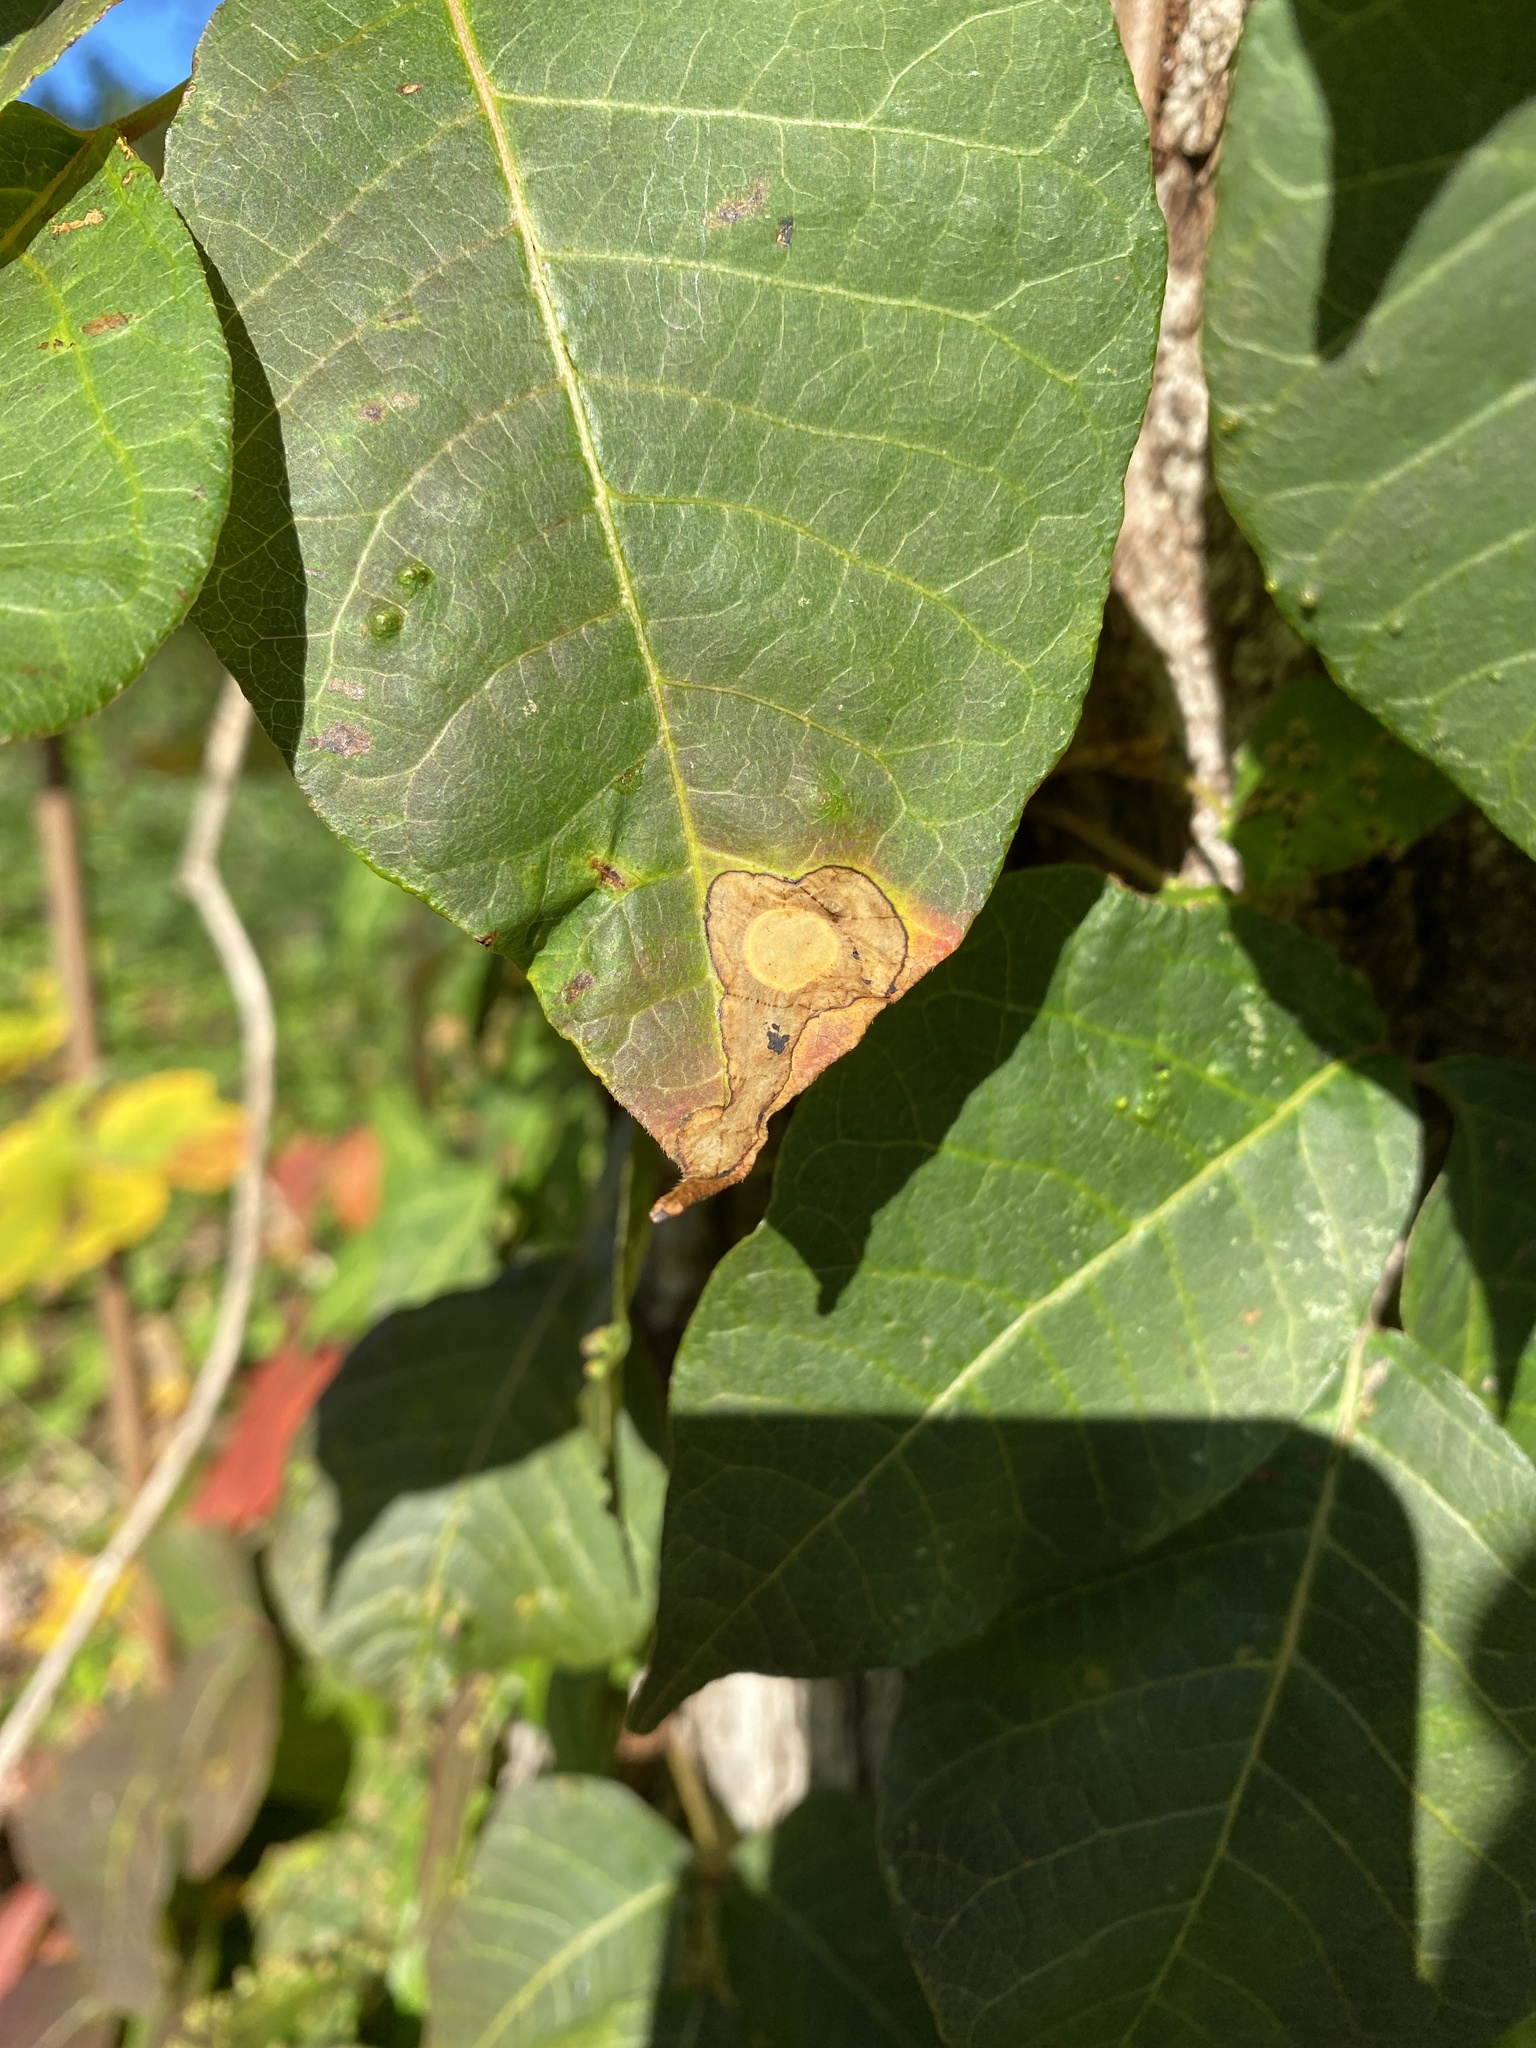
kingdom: Animalia
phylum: Arthropoda
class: Insecta
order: Lepidoptera
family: Gracillariidae
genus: Cameraria
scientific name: Cameraria guttifinitella
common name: Poison ivy leaf-miner moth
